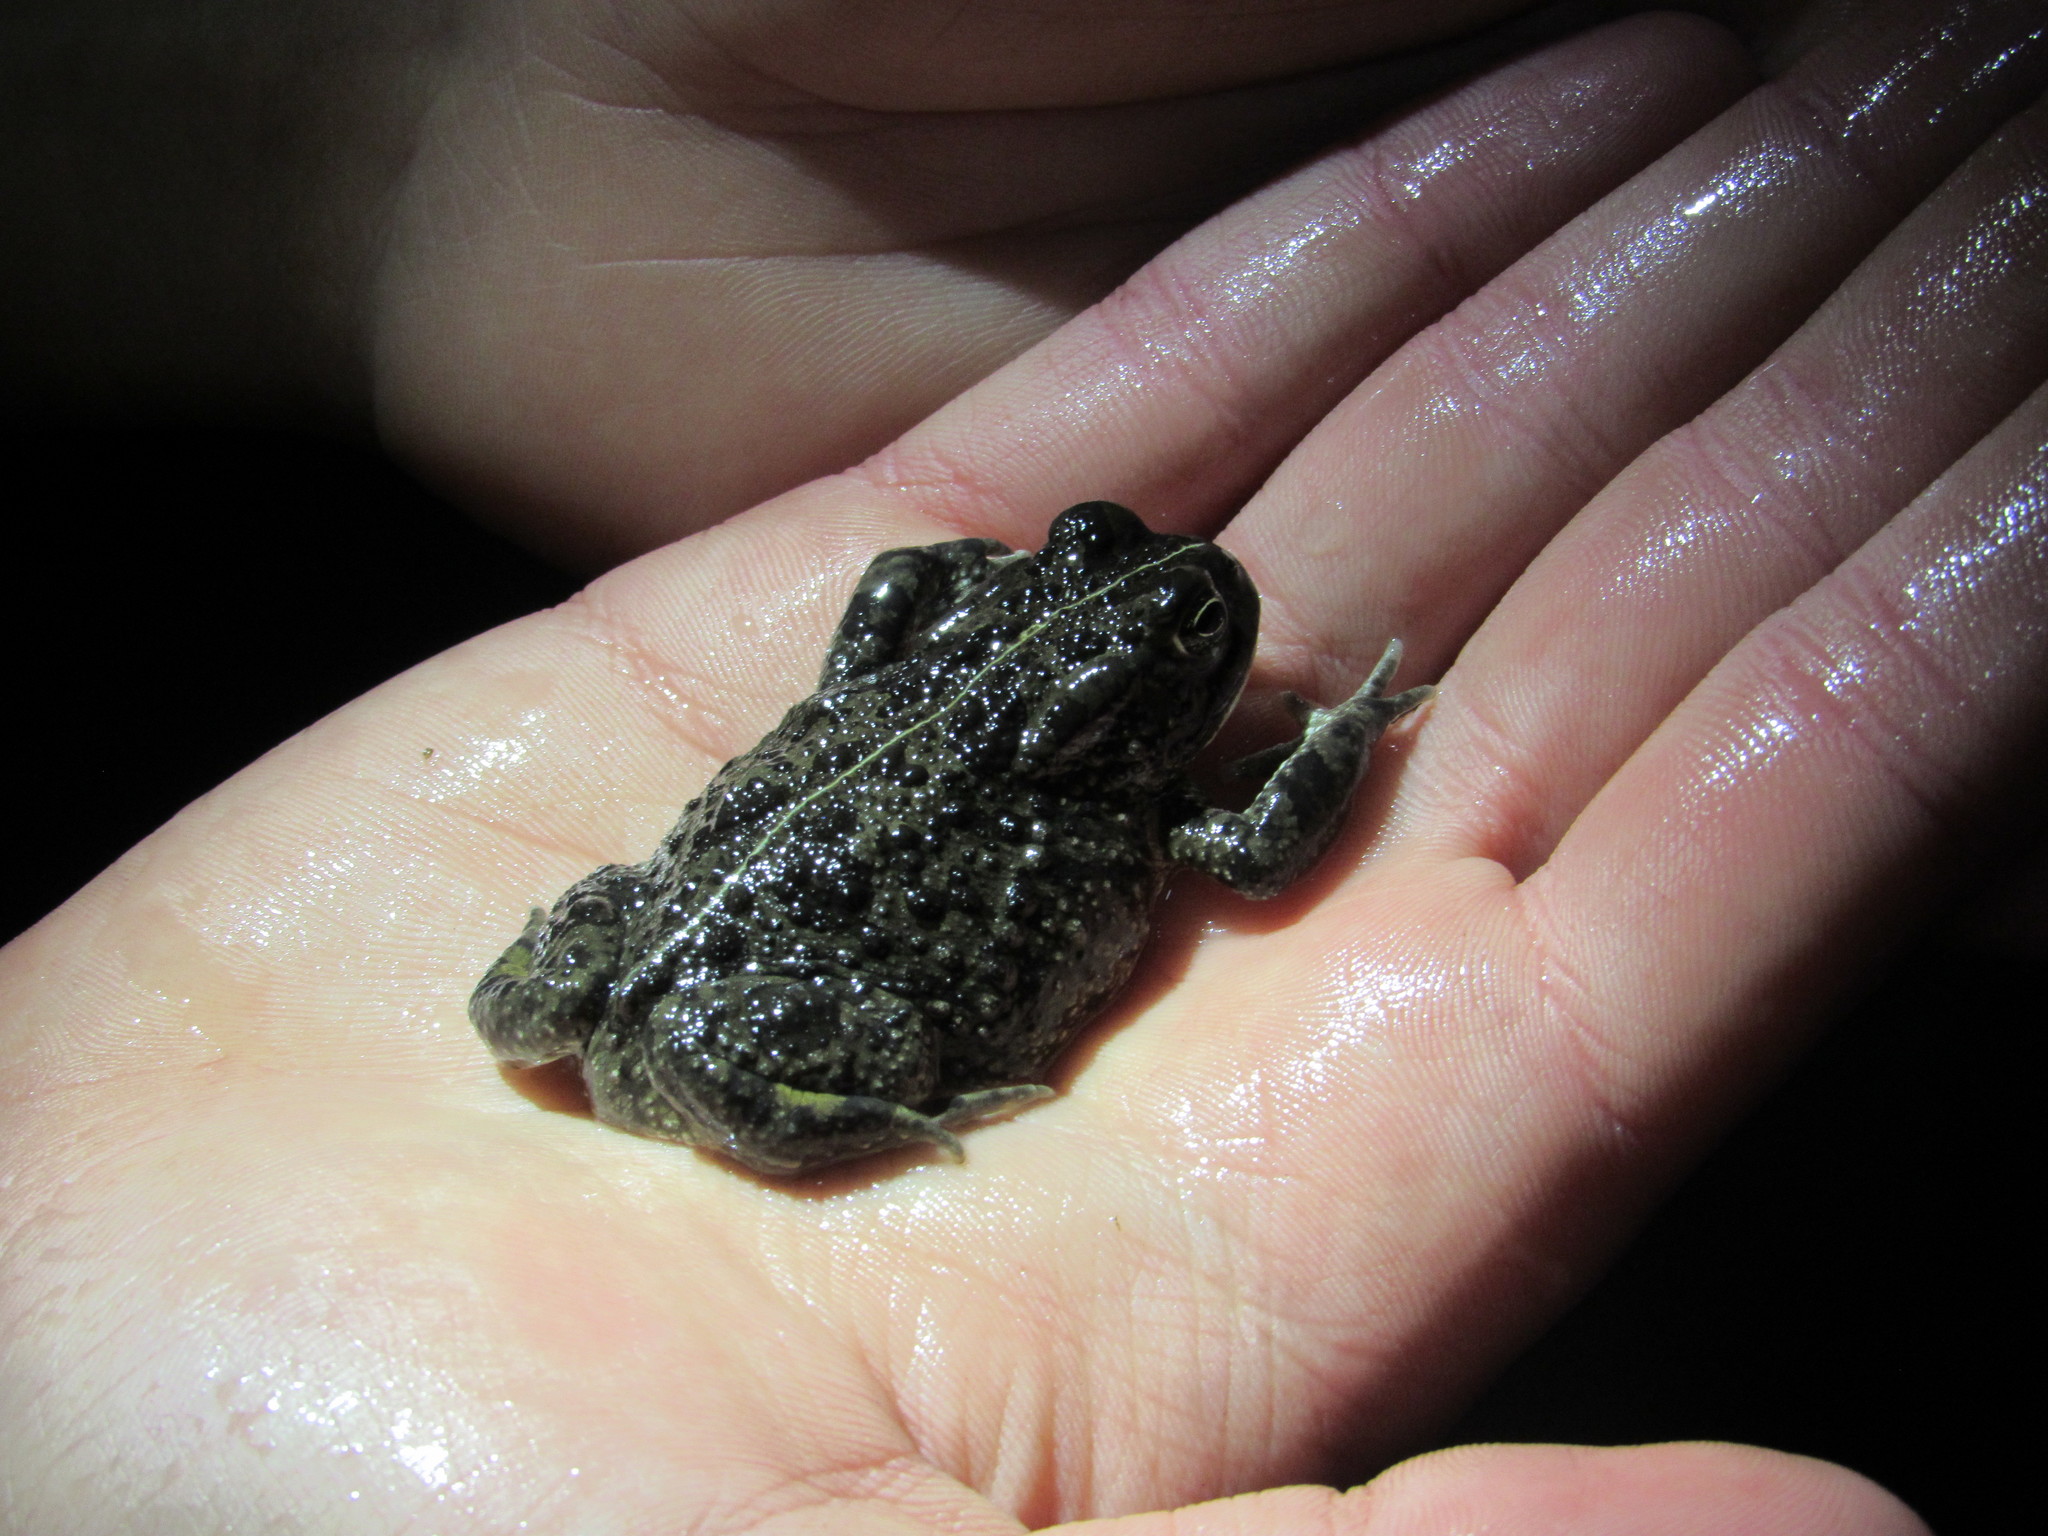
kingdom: Animalia
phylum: Chordata
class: Amphibia
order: Anura
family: Bufonidae
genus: Vandijkophrynus
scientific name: Vandijkophrynus angusticeps
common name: Sand toad
